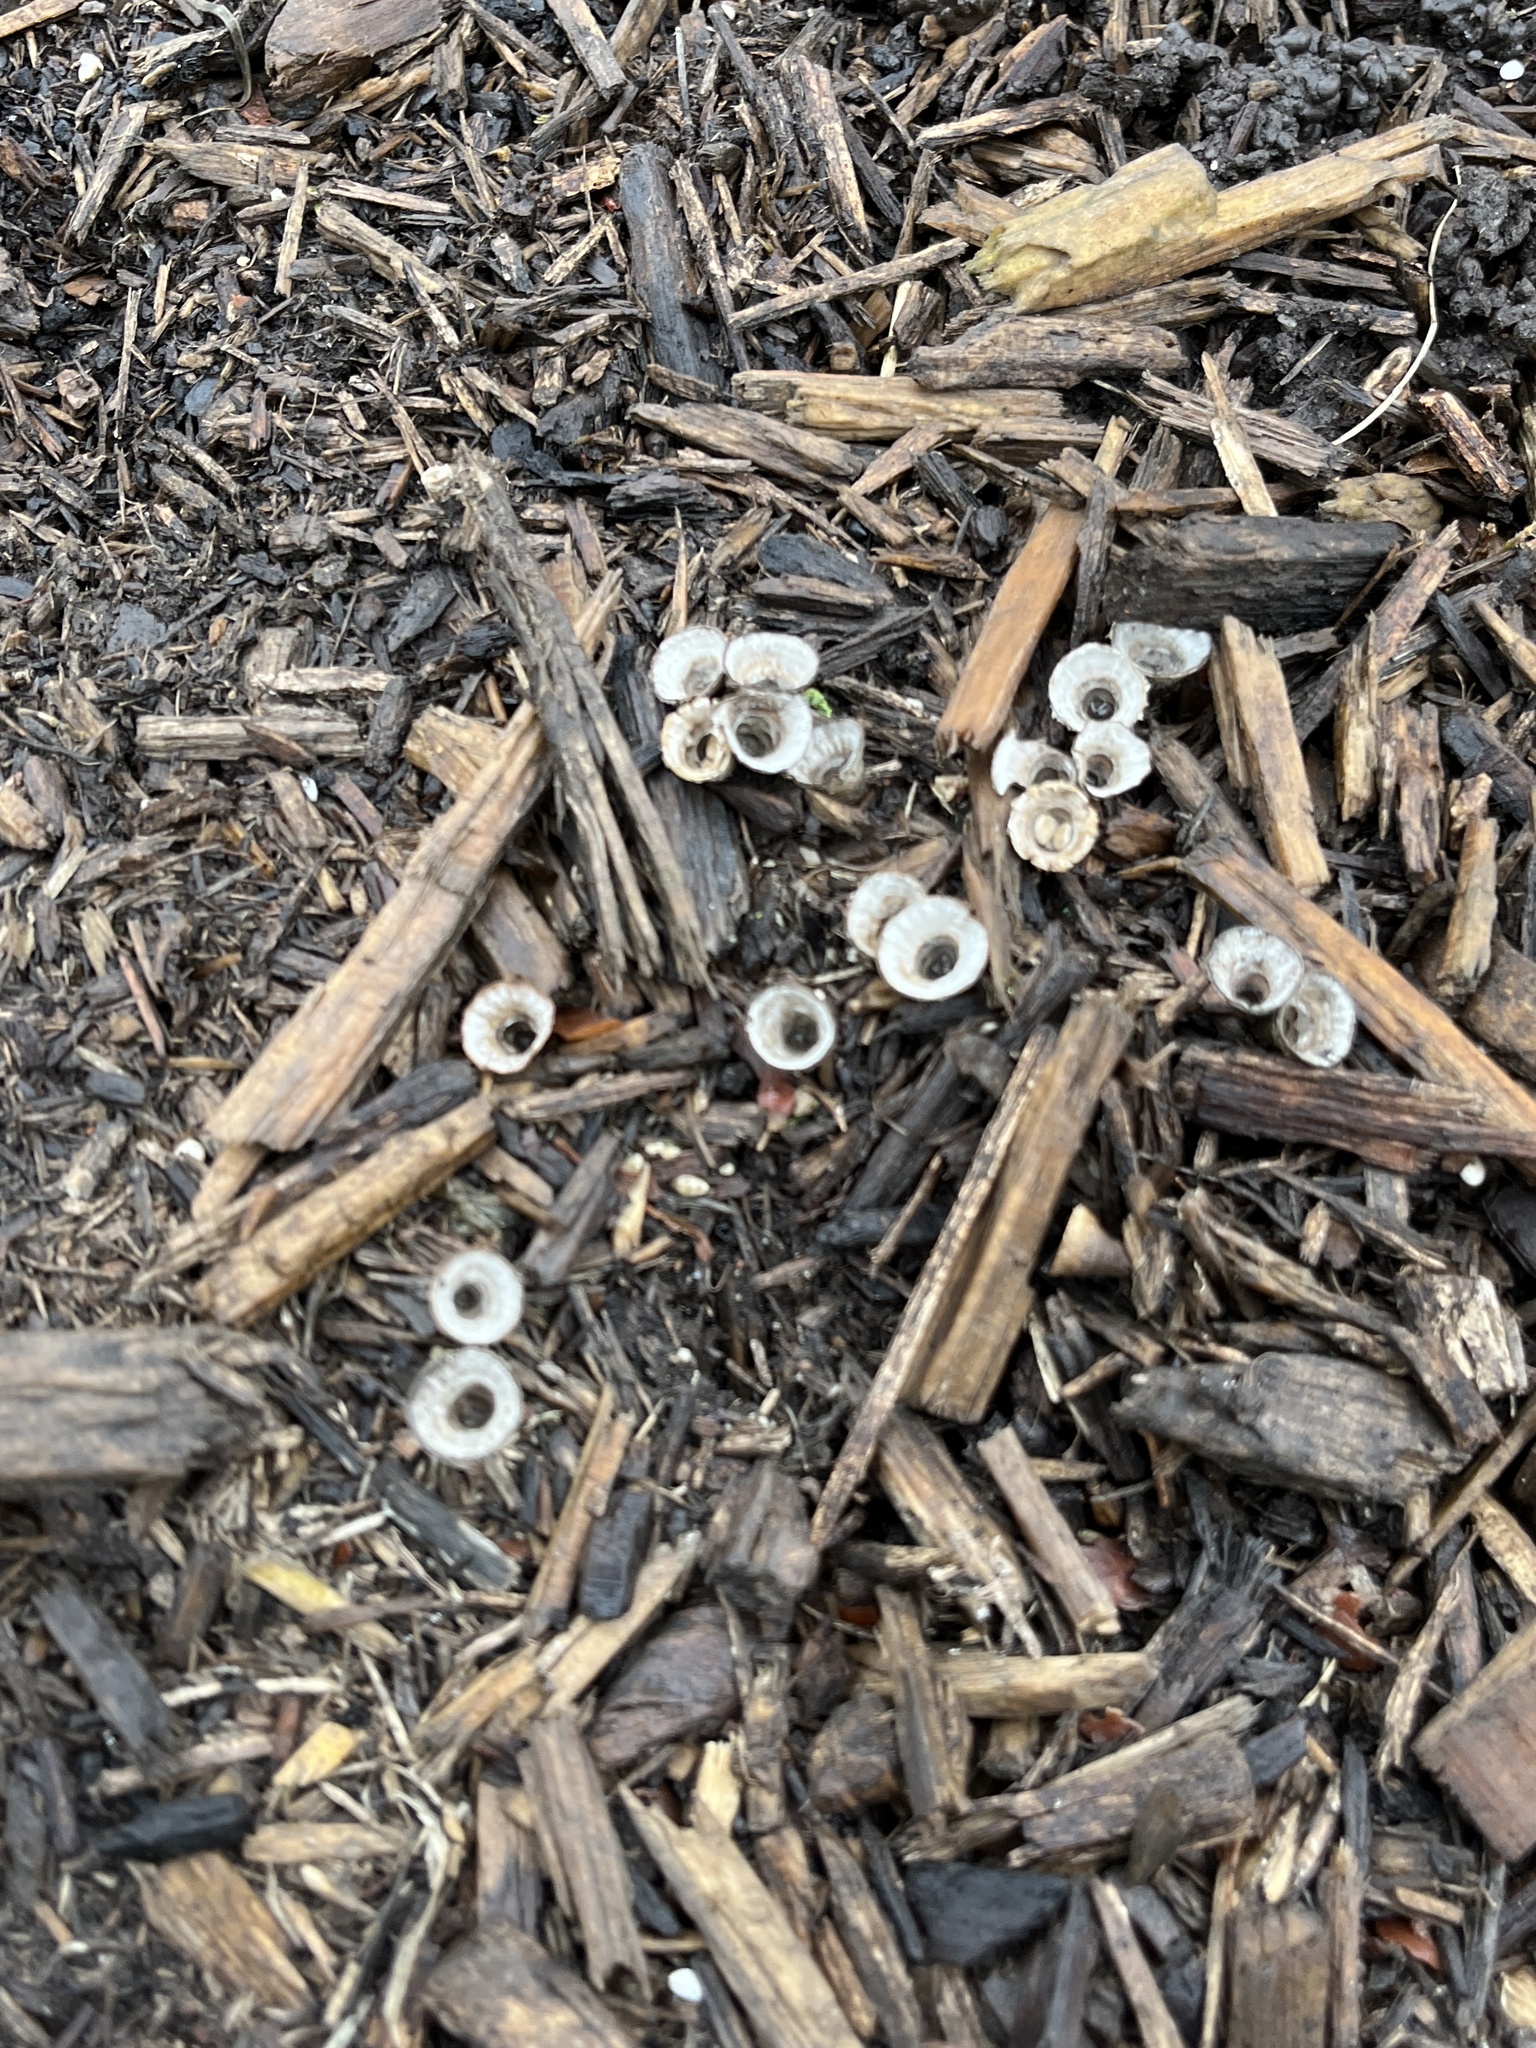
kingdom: Fungi
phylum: Basidiomycota
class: Agaricomycetes
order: Agaricales
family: Agaricaceae
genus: Cyathus
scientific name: Cyathus striatus
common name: Fluted bird's nest
